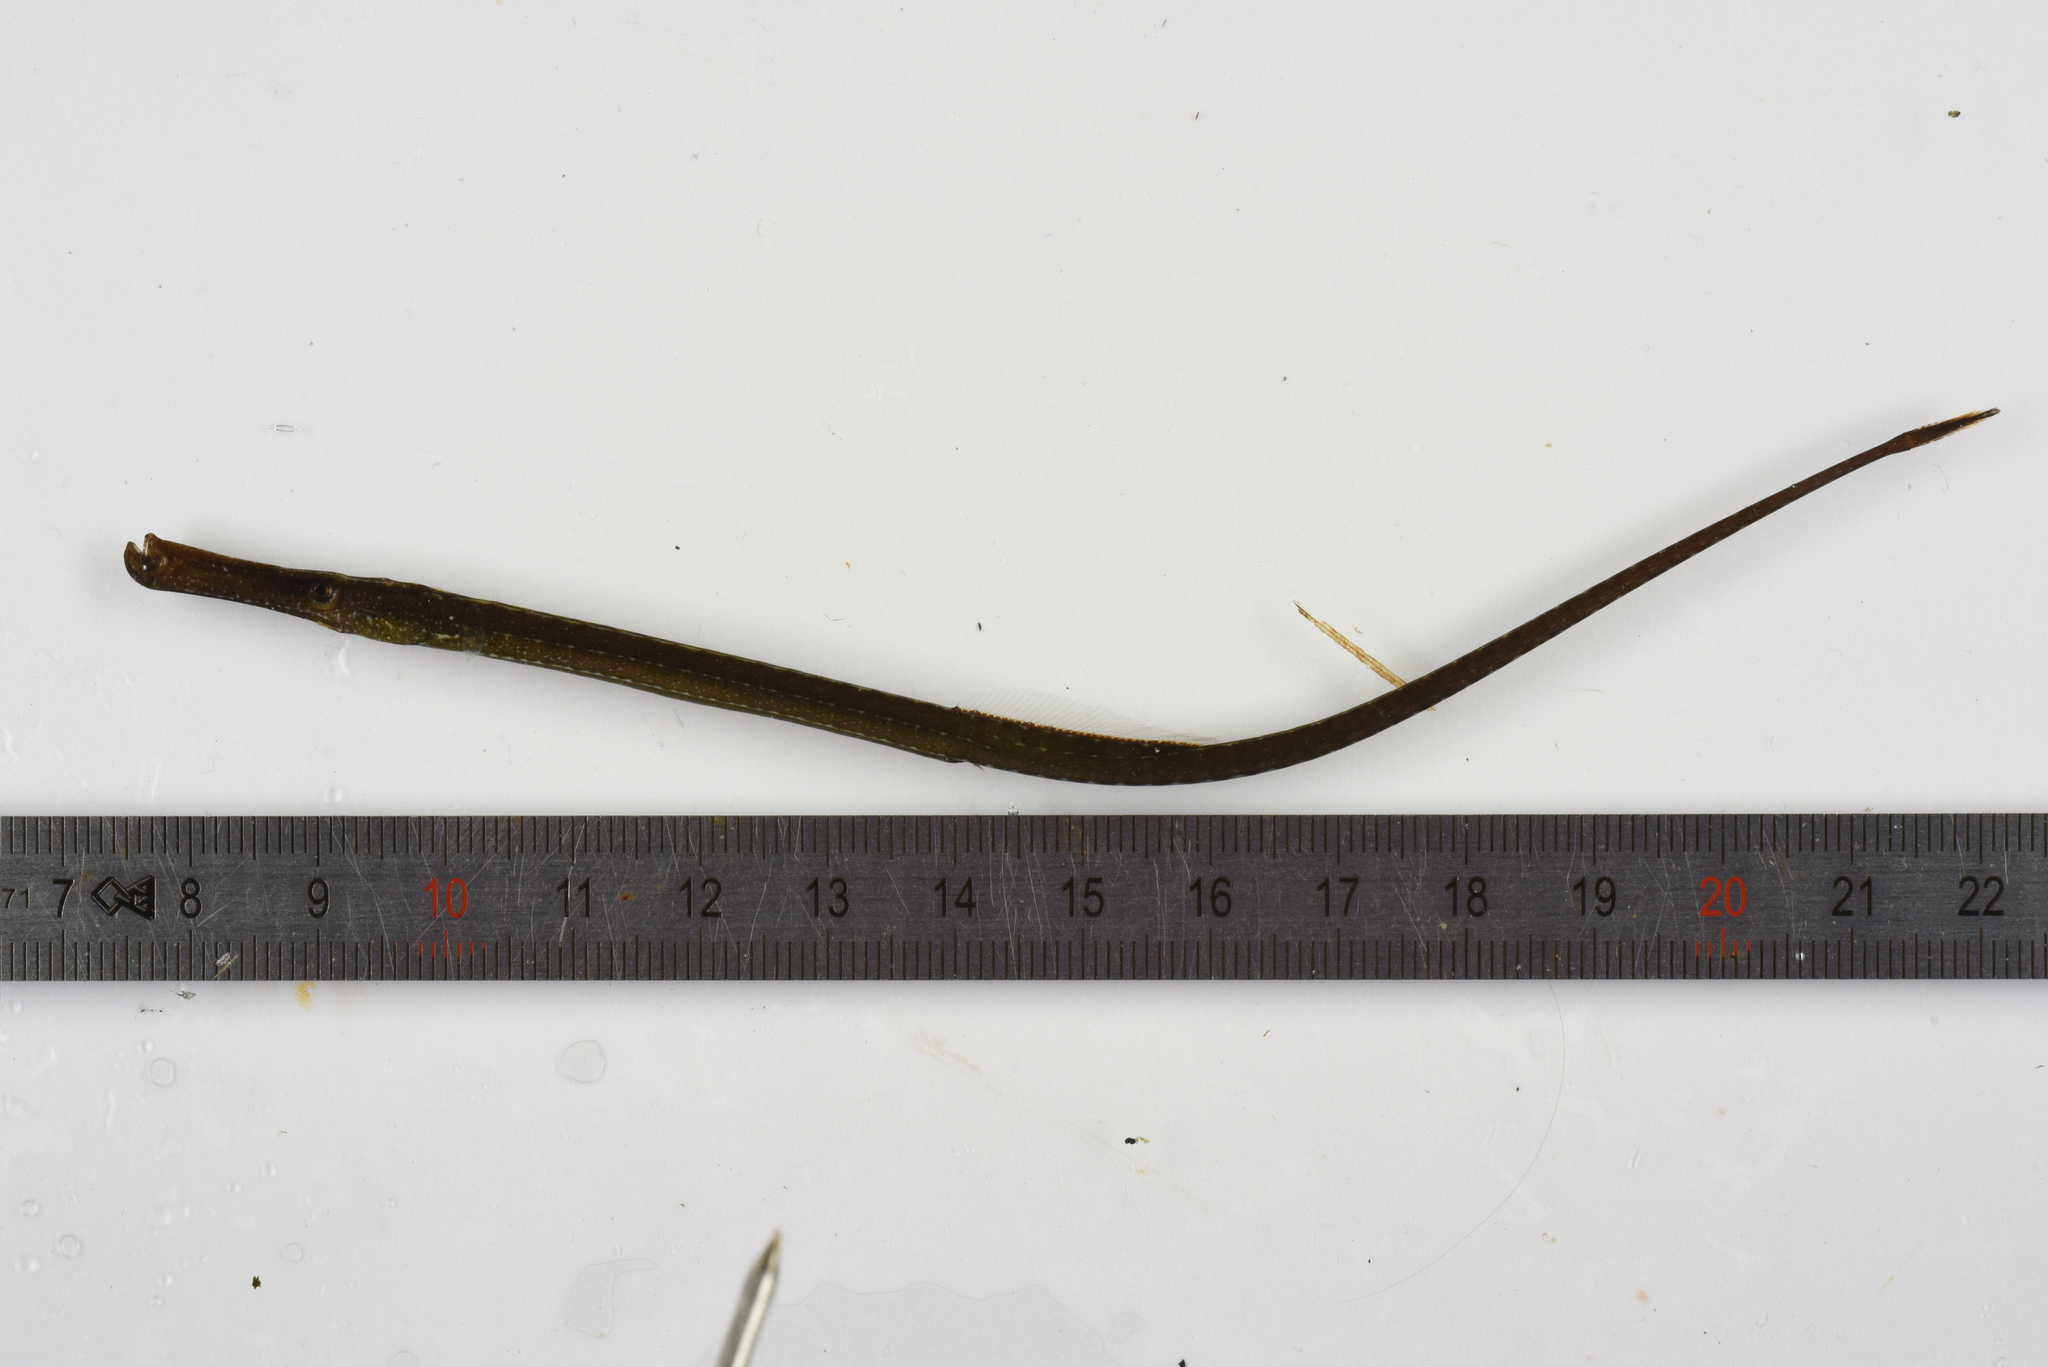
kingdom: Animalia
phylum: Chordata
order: Syngnathiformes
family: Syngnathidae
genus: Syngnathus
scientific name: Syngnathus typhle
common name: Deep-snouted pipefish
